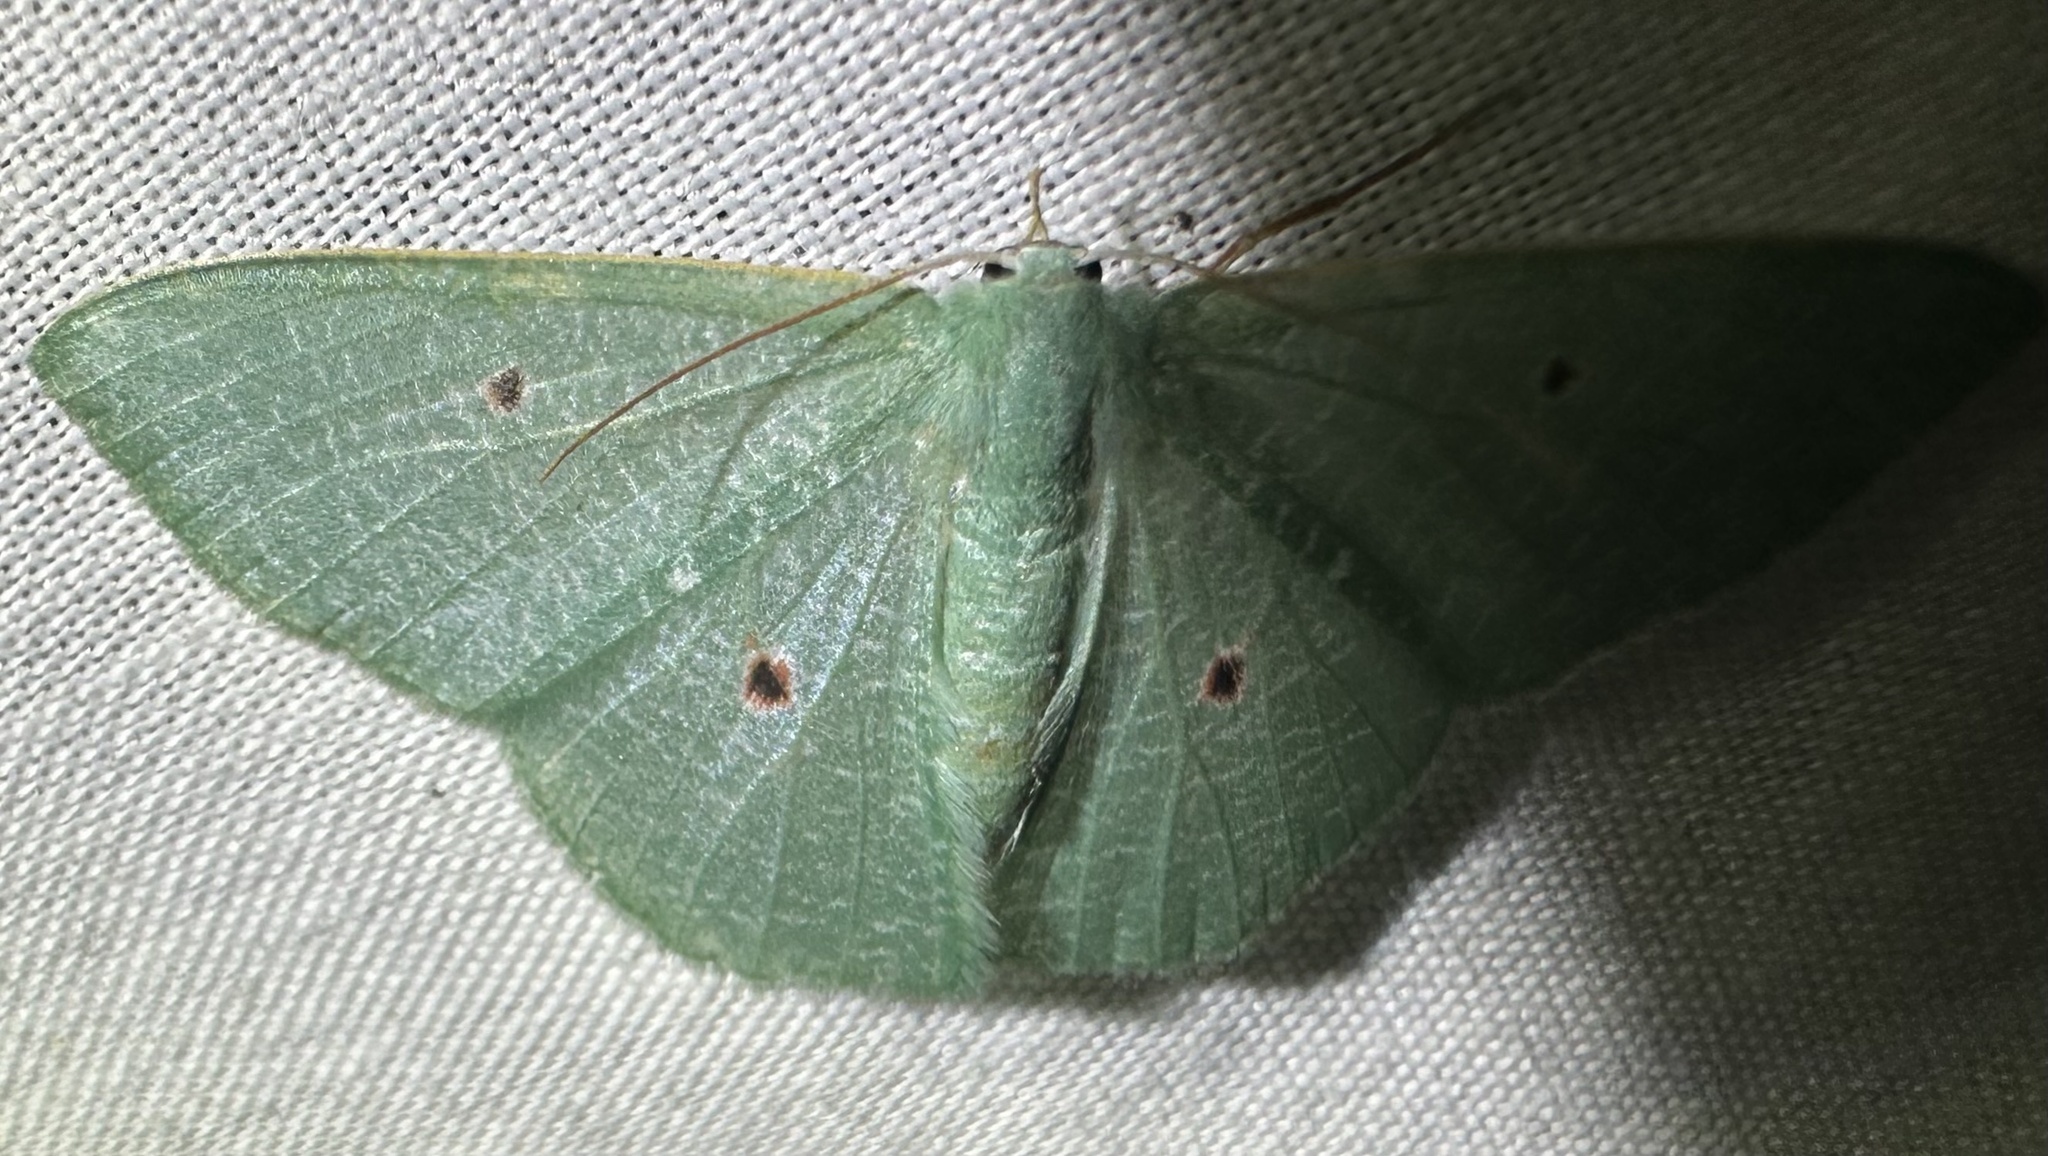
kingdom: Animalia
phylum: Arthropoda
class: Insecta
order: Lepidoptera
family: Geometridae
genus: Prasinocyma
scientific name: Prasinocyma oculata
